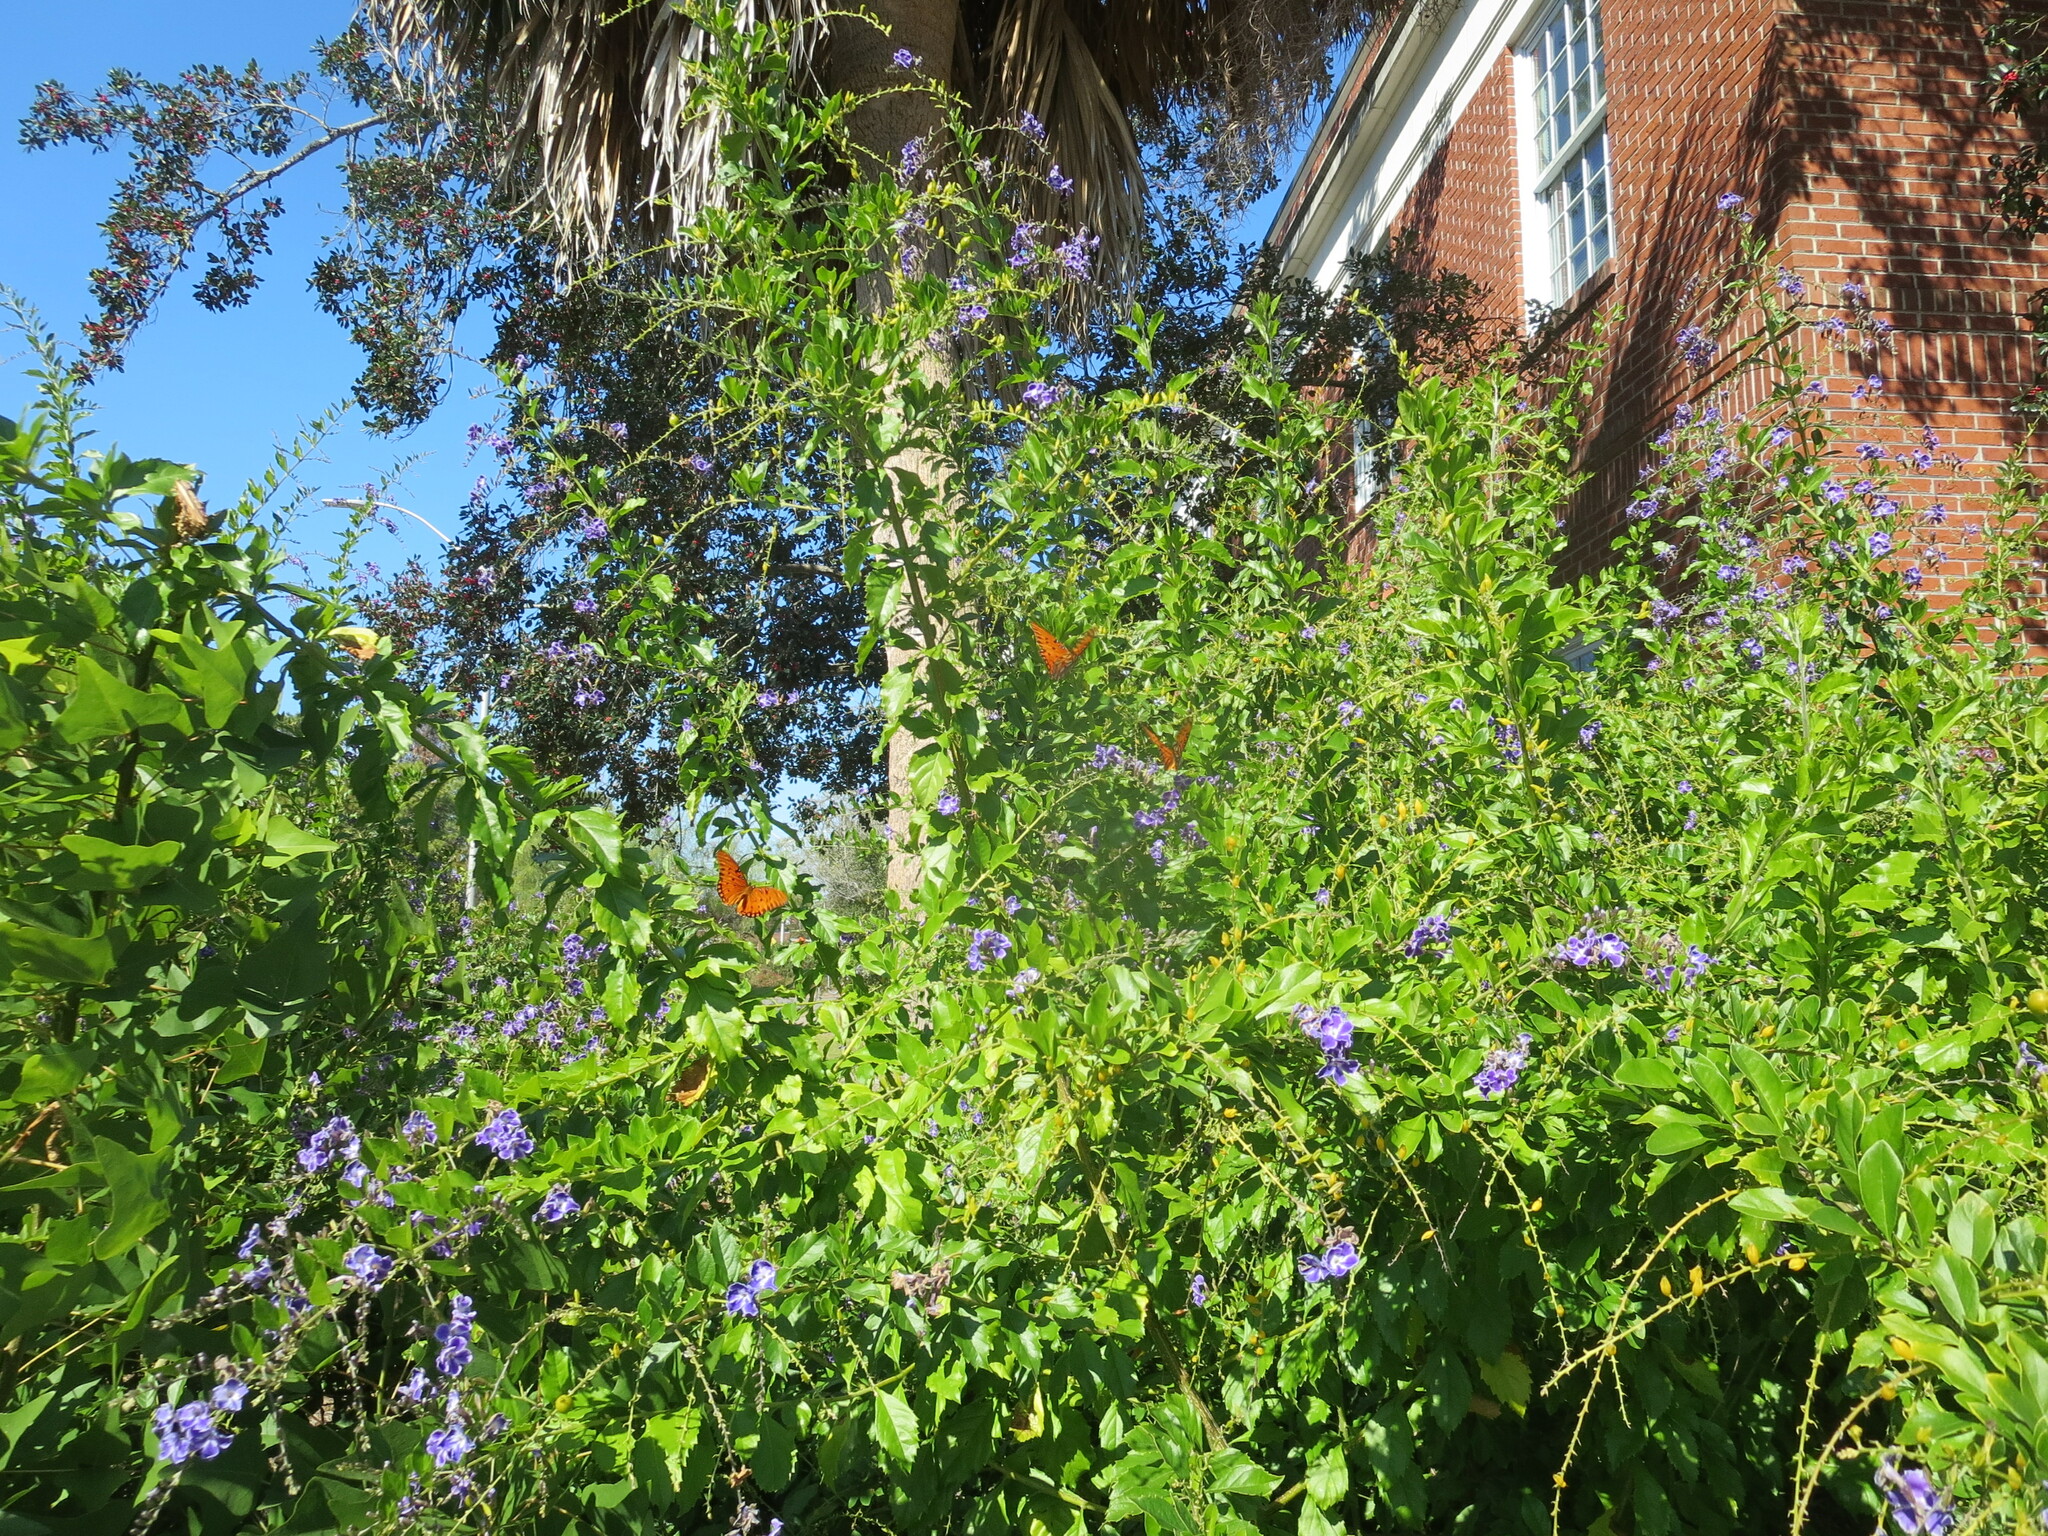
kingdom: Animalia
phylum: Arthropoda
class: Insecta
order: Lepidoptera
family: Nymphalidae
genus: Dione
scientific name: Dione vanillae
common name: Gulf fritillary
